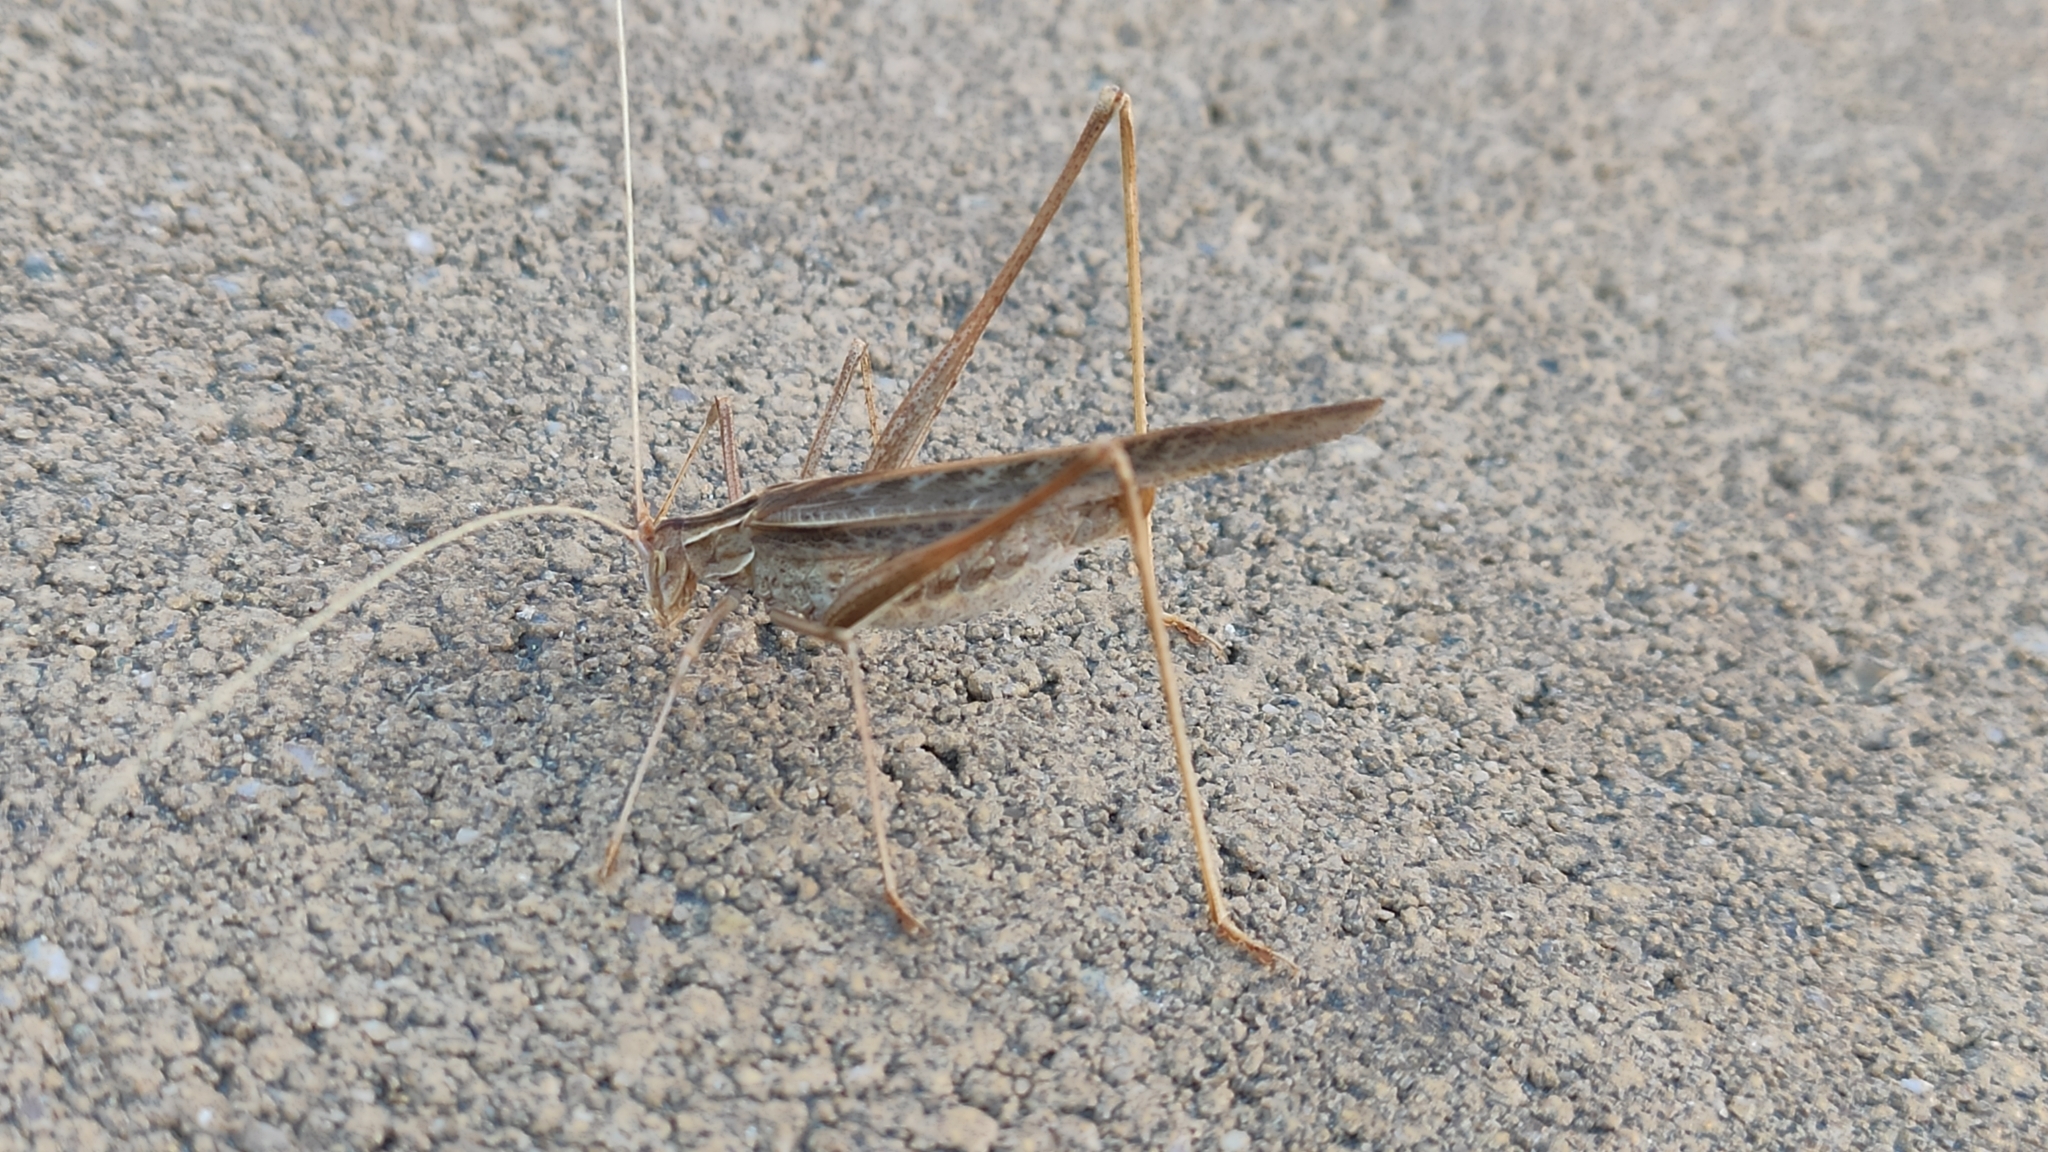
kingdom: Animalia
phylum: Arthropoda
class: Insecta
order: Orthoptera
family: Tettigoniidae
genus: Tylopsis
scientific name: Tylopsis lilifolia
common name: Lily bush-cricket
